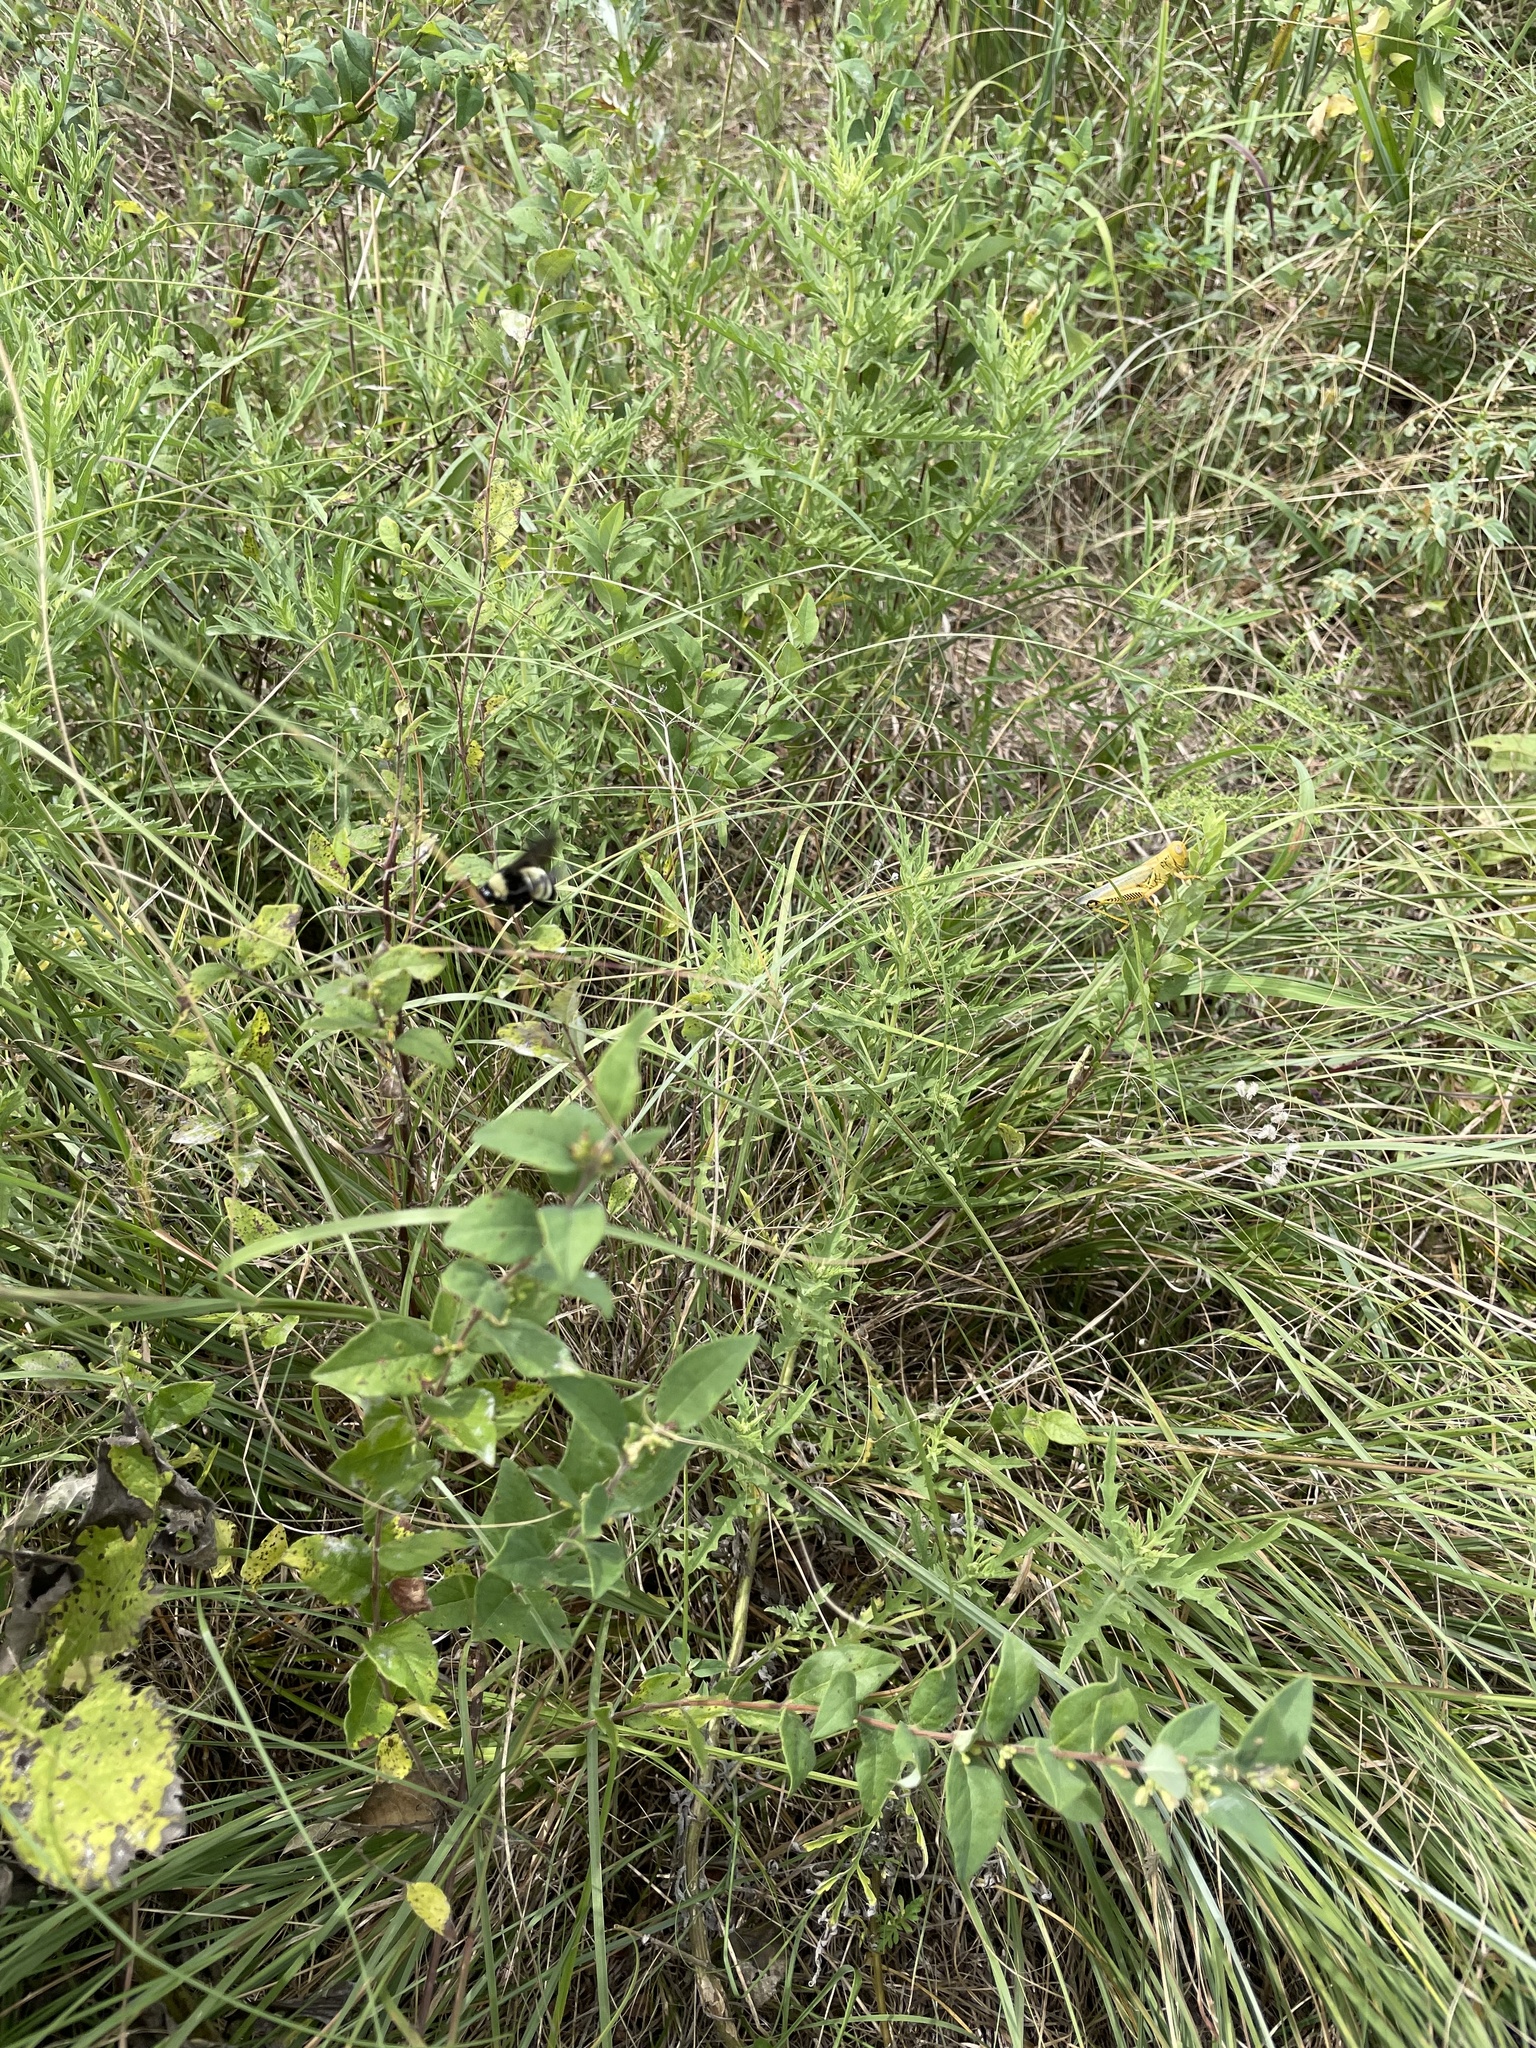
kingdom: Animalia
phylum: Arthropoda
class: Insecta
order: Hymenoptera
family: Apidae
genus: Bombus
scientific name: Bombus pensylvanicus
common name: Bumble bee
